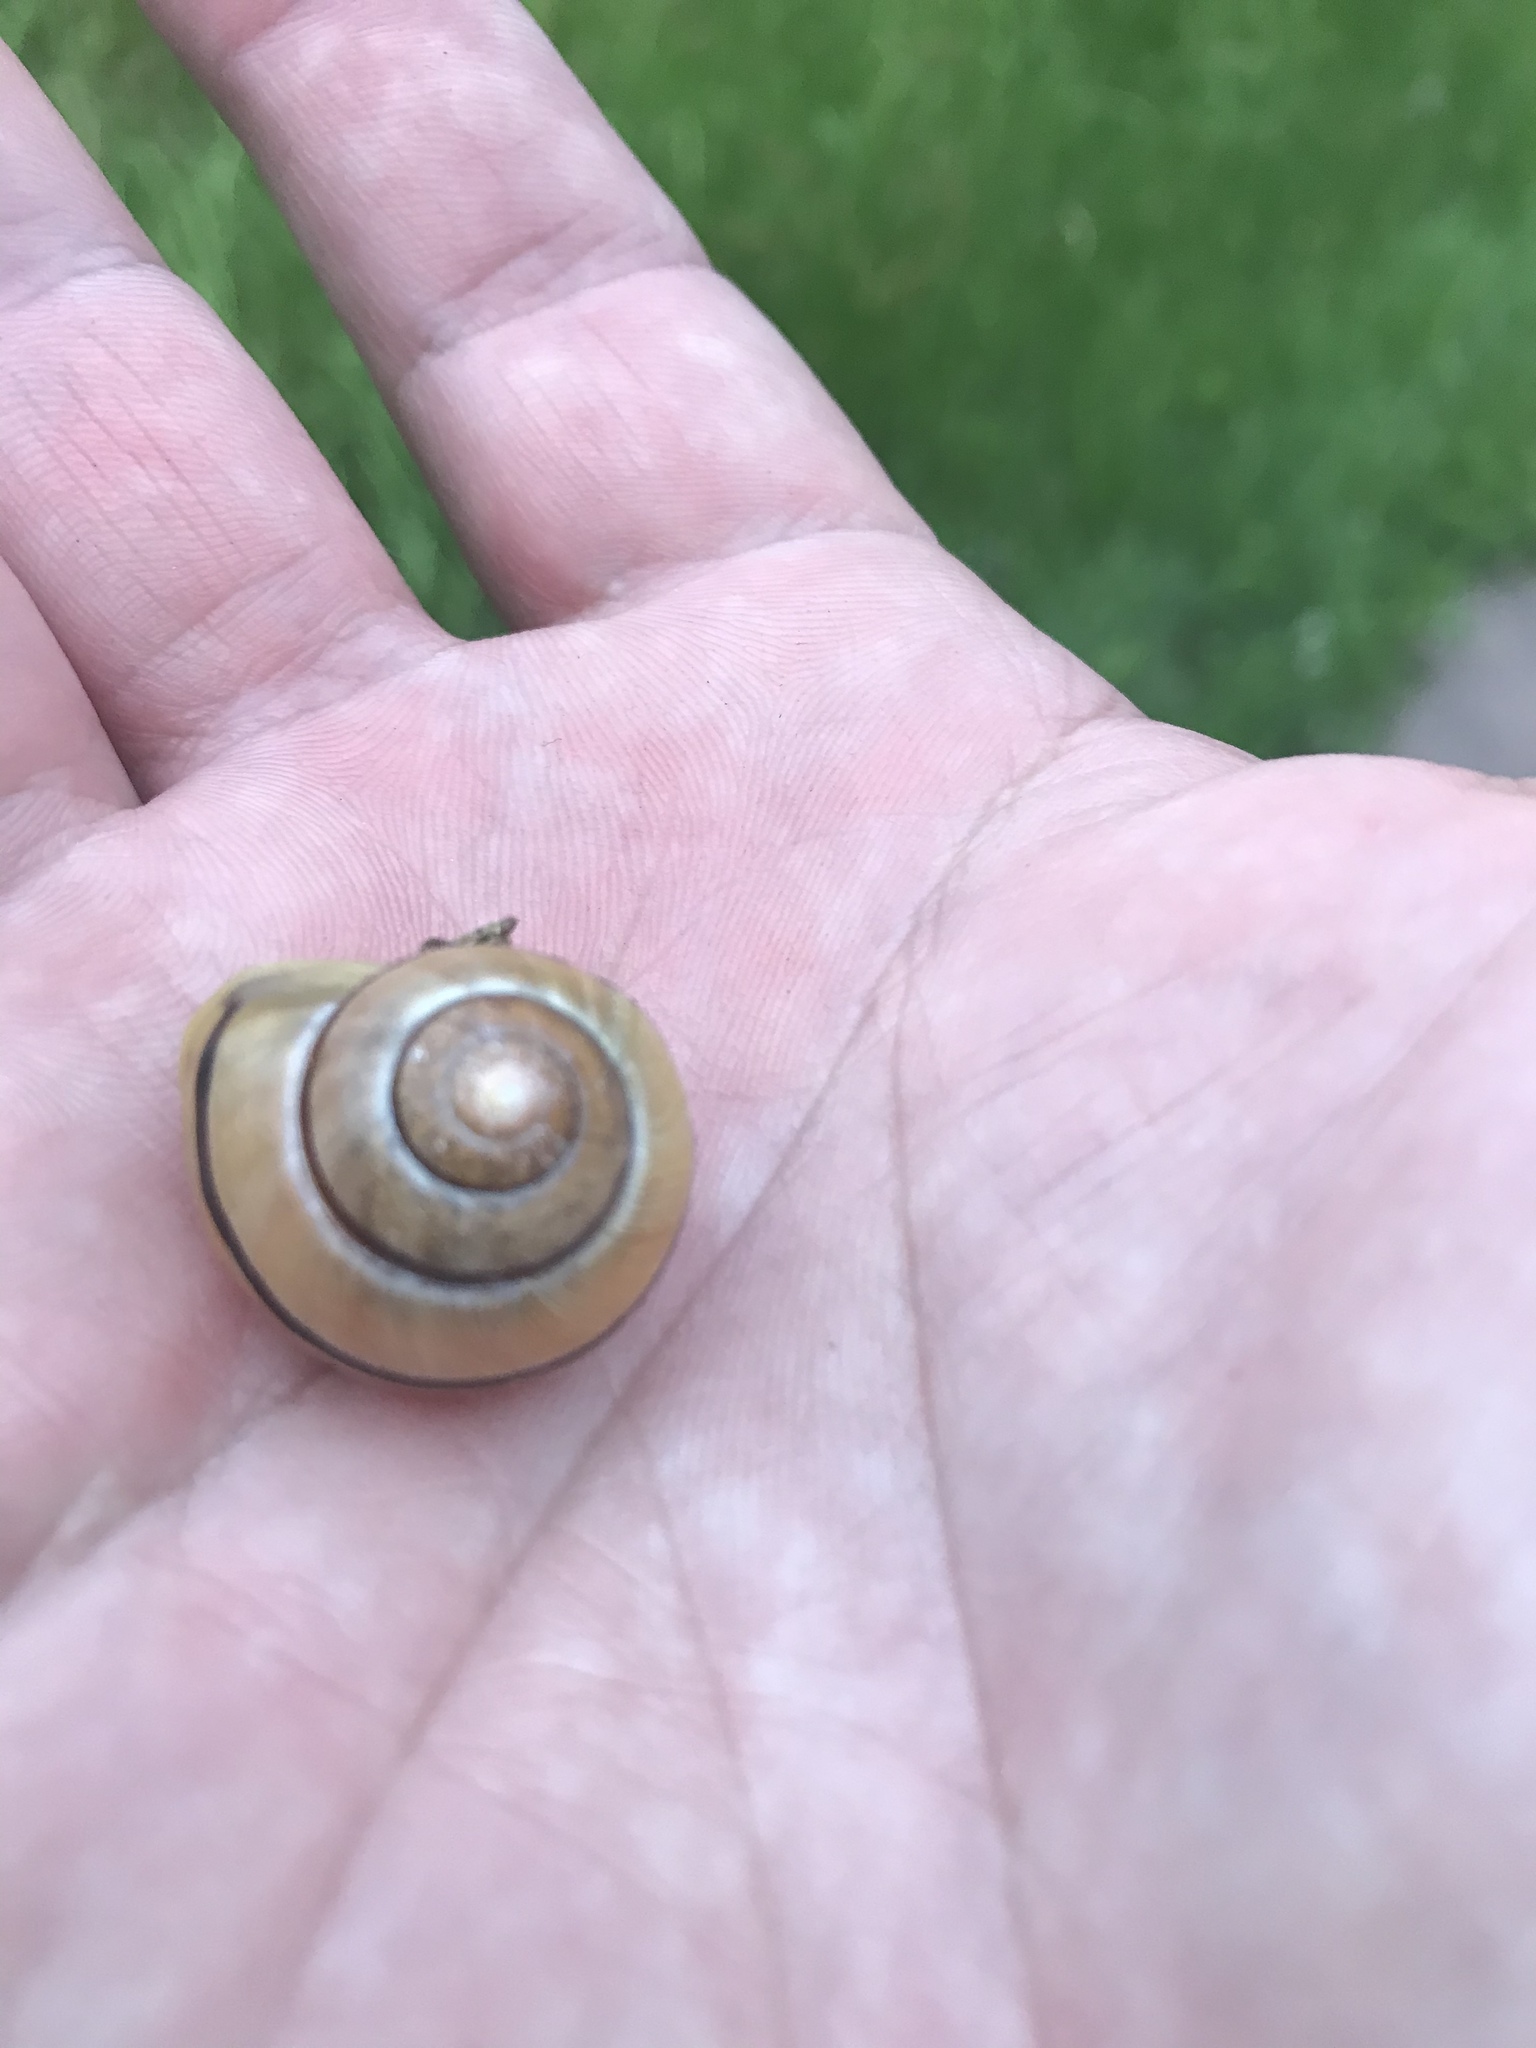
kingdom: Animalia
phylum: Mollusca
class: Gastropoda
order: Stylommatophora
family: Helicidae
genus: Cepaea
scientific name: Cepaea nemoralis
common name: Grovesnail
